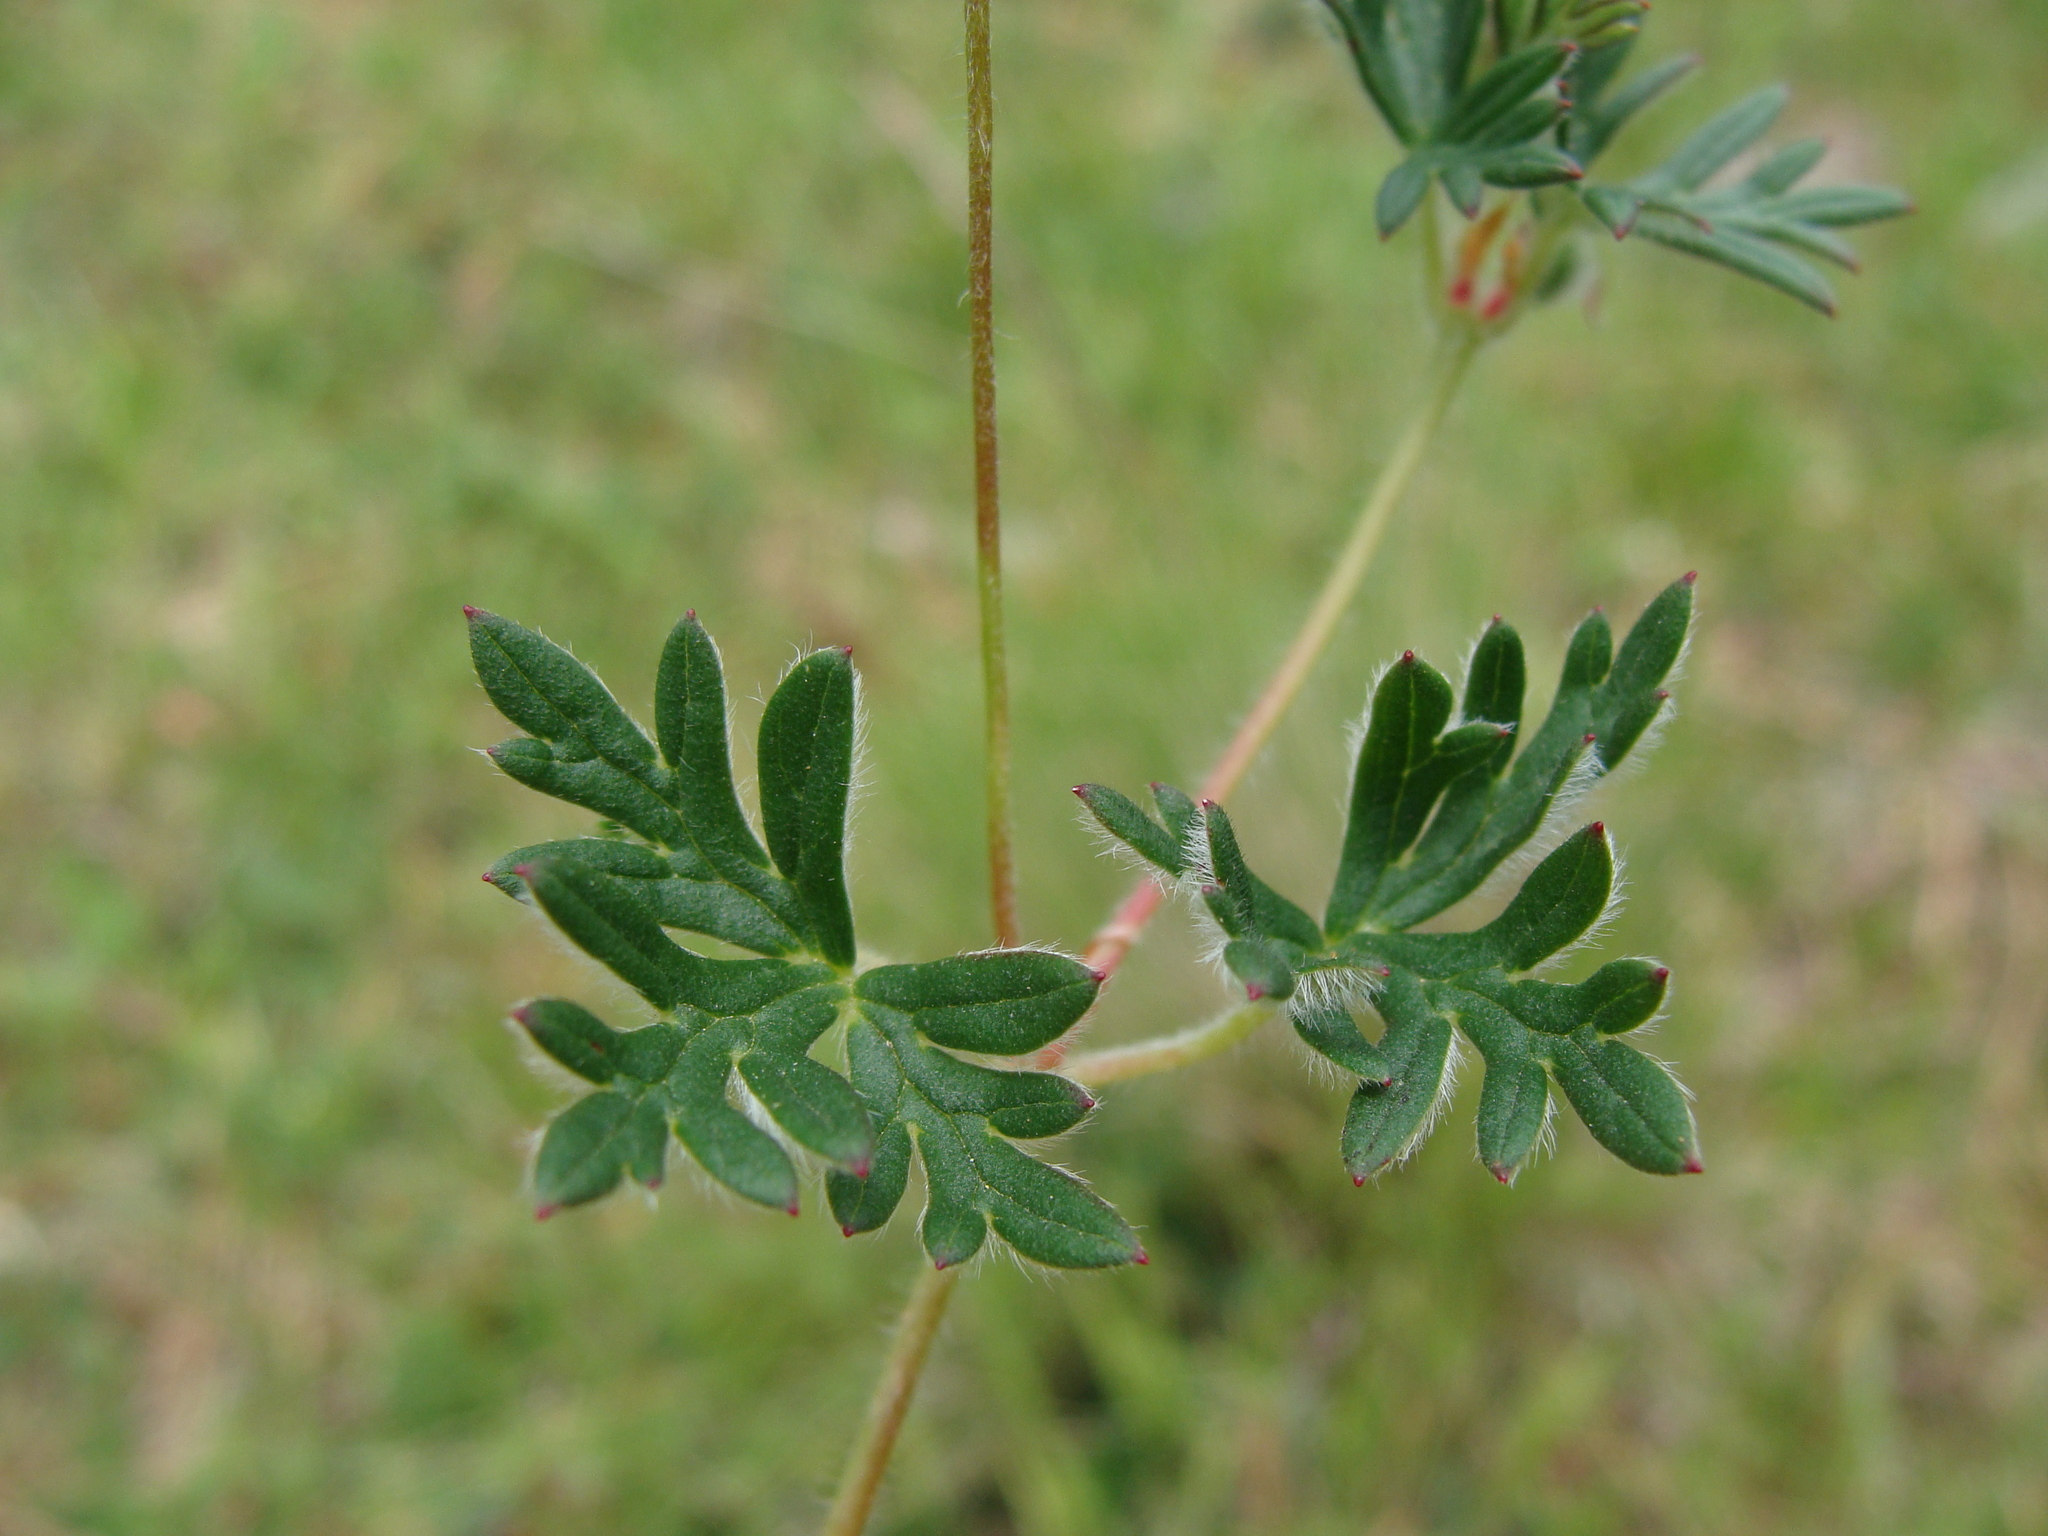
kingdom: Plantae
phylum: Tracheophyta
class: Magnoliopsida
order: Geraniales
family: Geraniaceae
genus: Geranium
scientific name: Geranium potentillifolium
